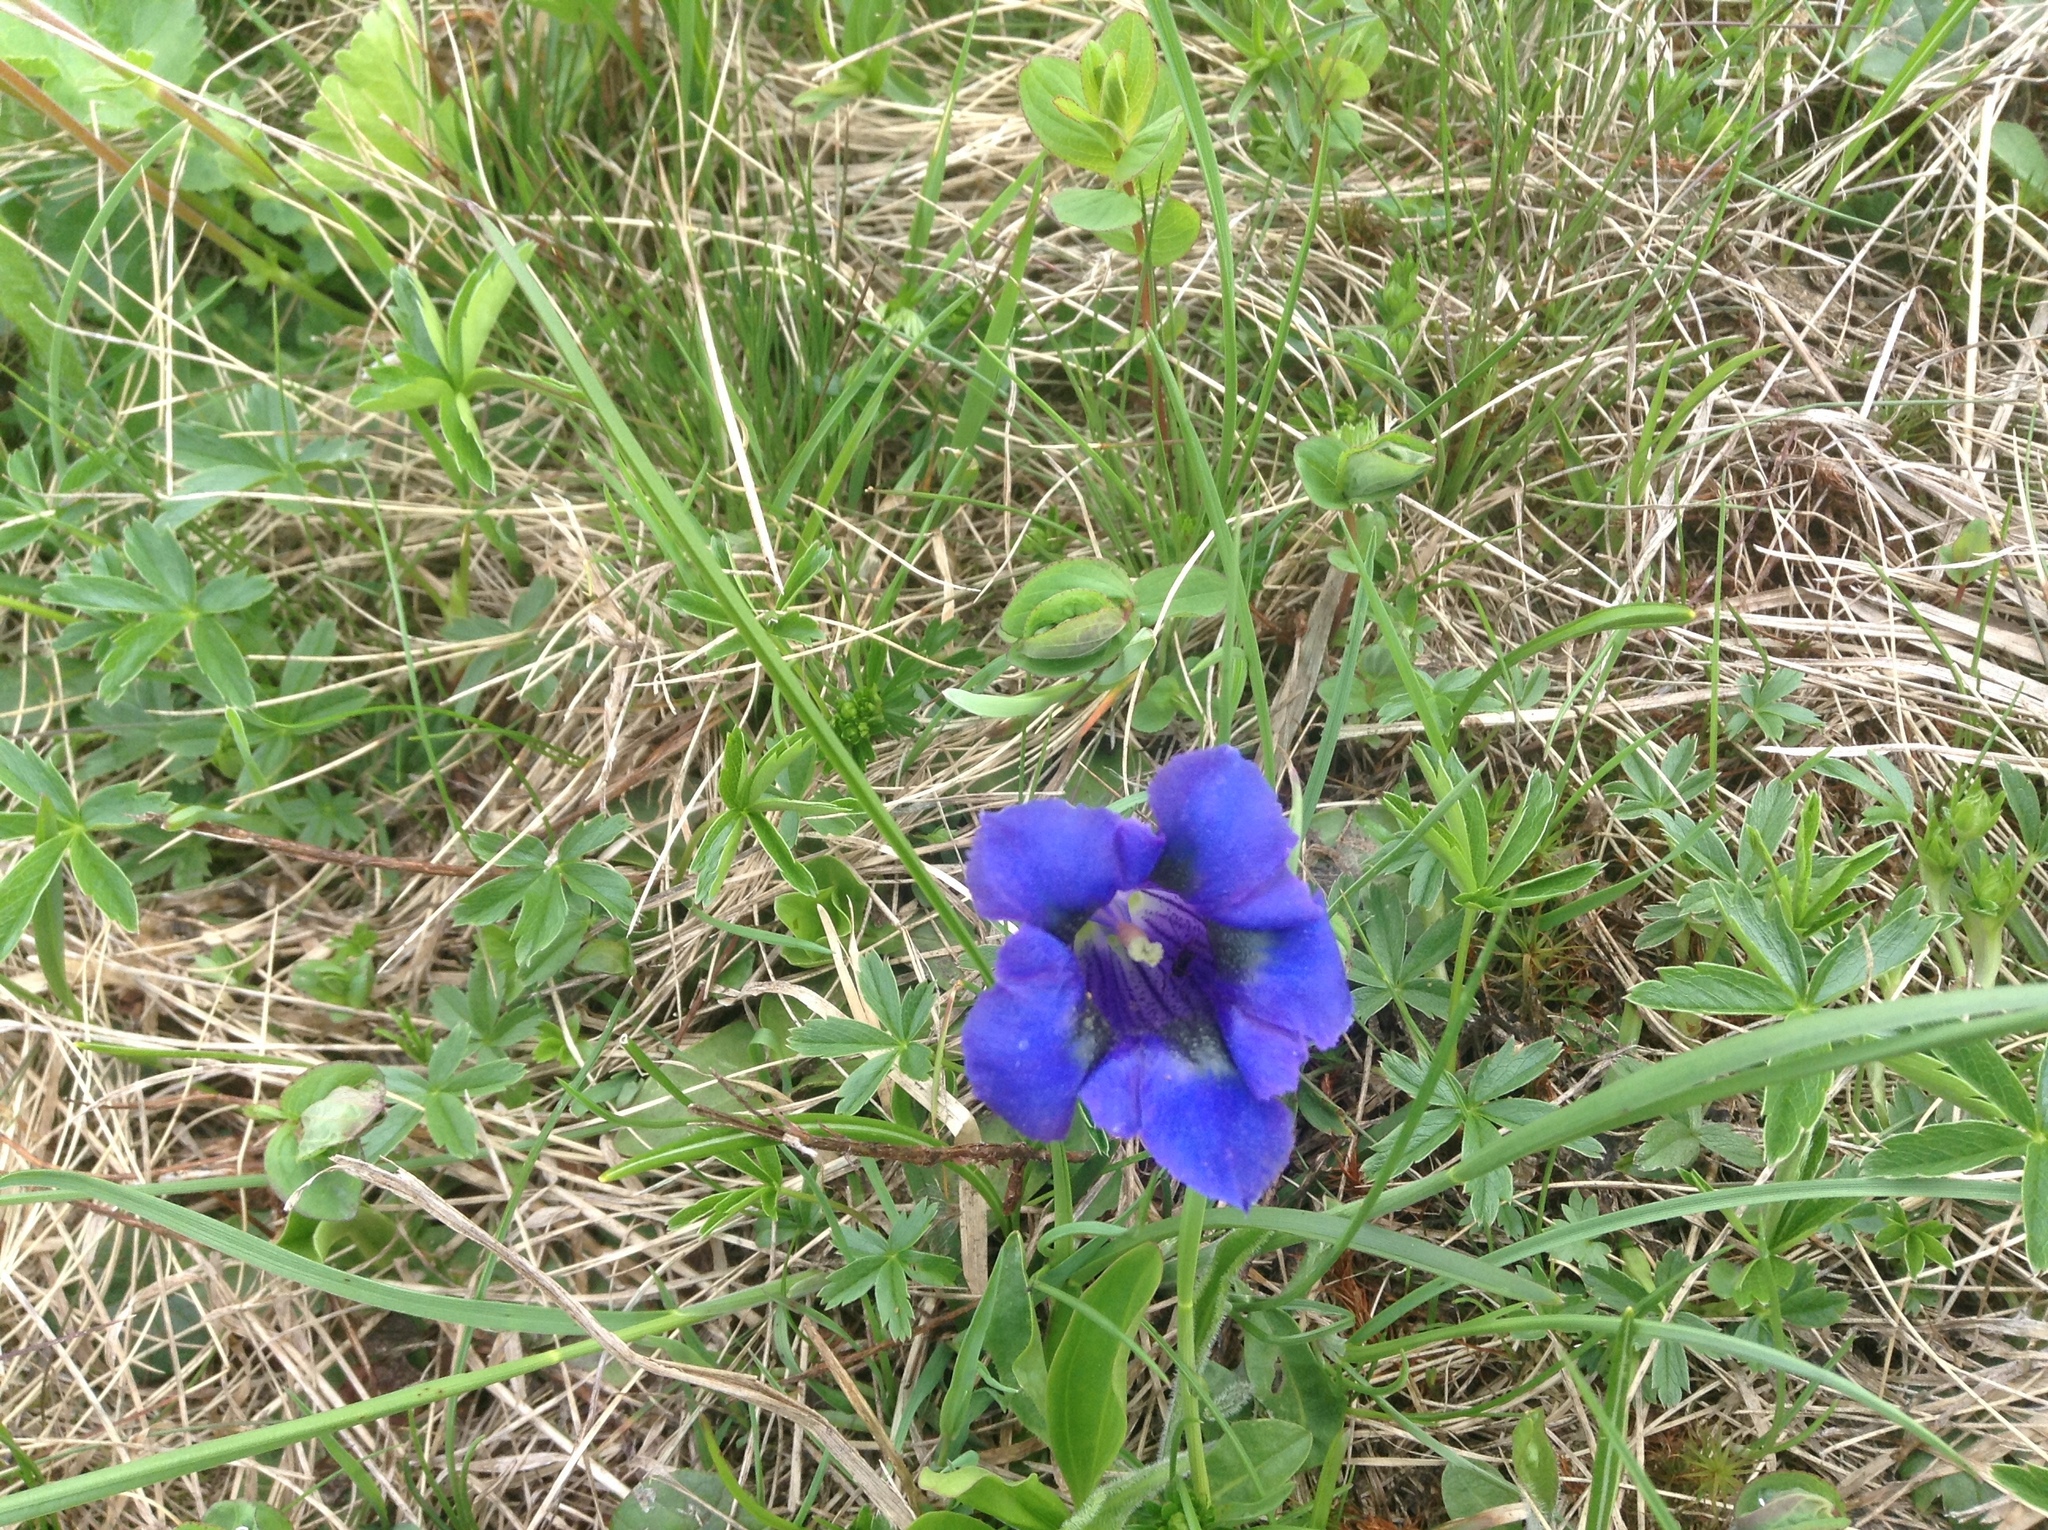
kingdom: Plantae
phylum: Tracheophyta
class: Magnoliopsida
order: Gentianales
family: Gentianaceae
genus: Gentiana
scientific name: Gentiana acaulis
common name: Trumpet gentian
